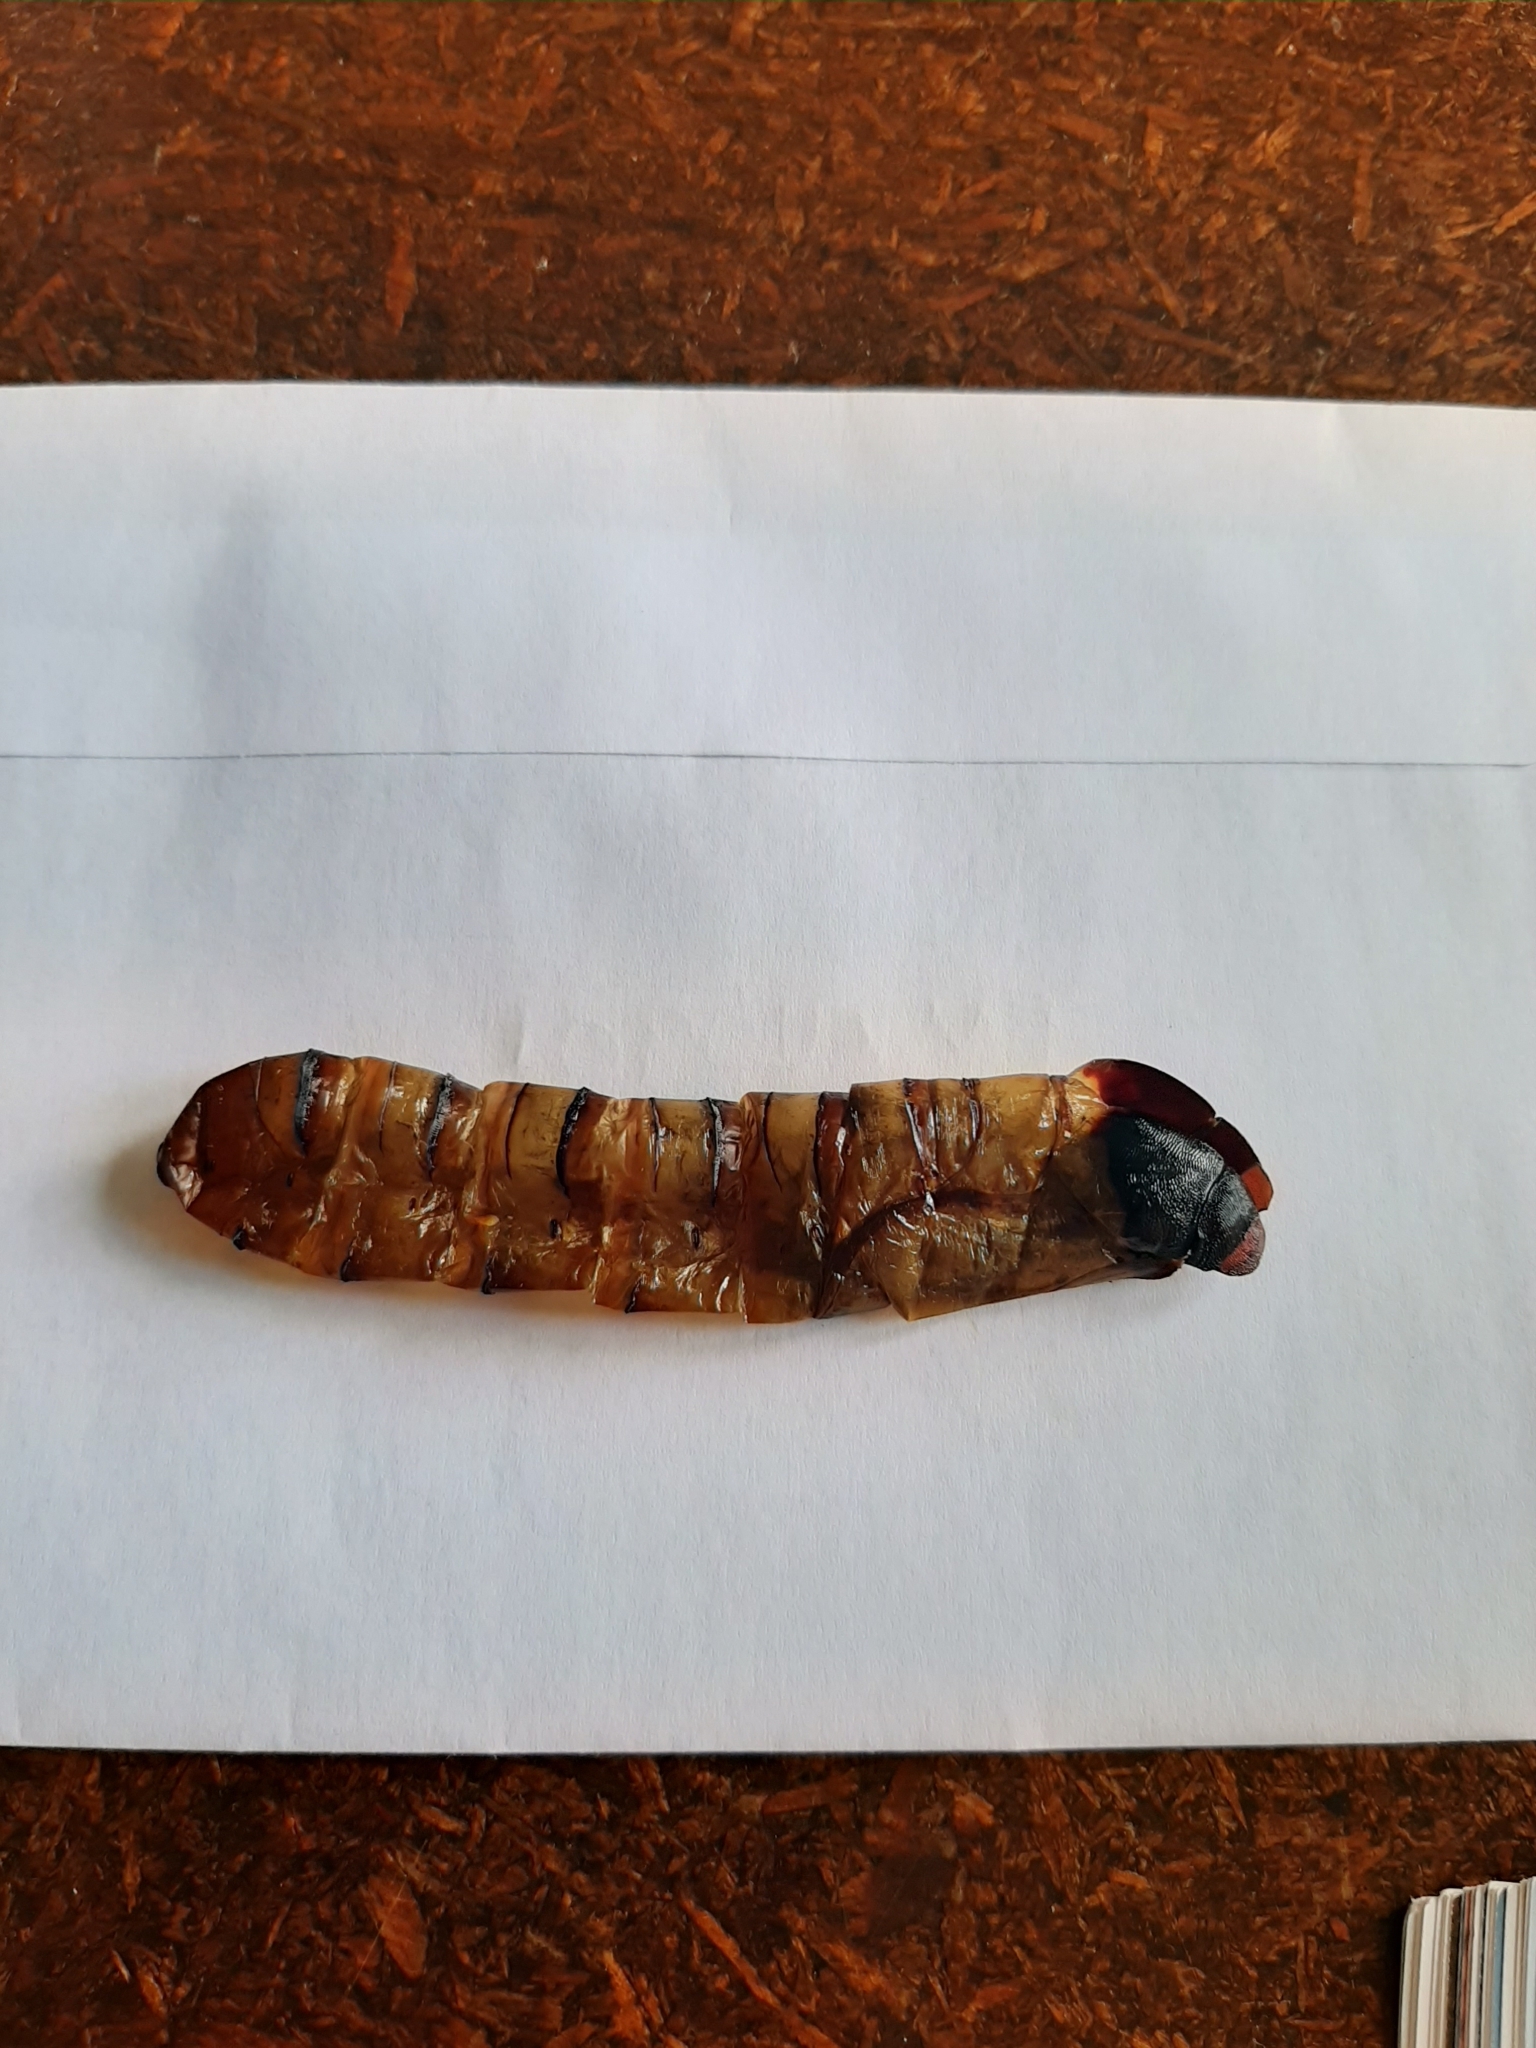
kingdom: Animalia
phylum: Arthropoda
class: Insecta
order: Lepidoptera
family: Hepialidae
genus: Aenetus
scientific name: Aenetus virescens
